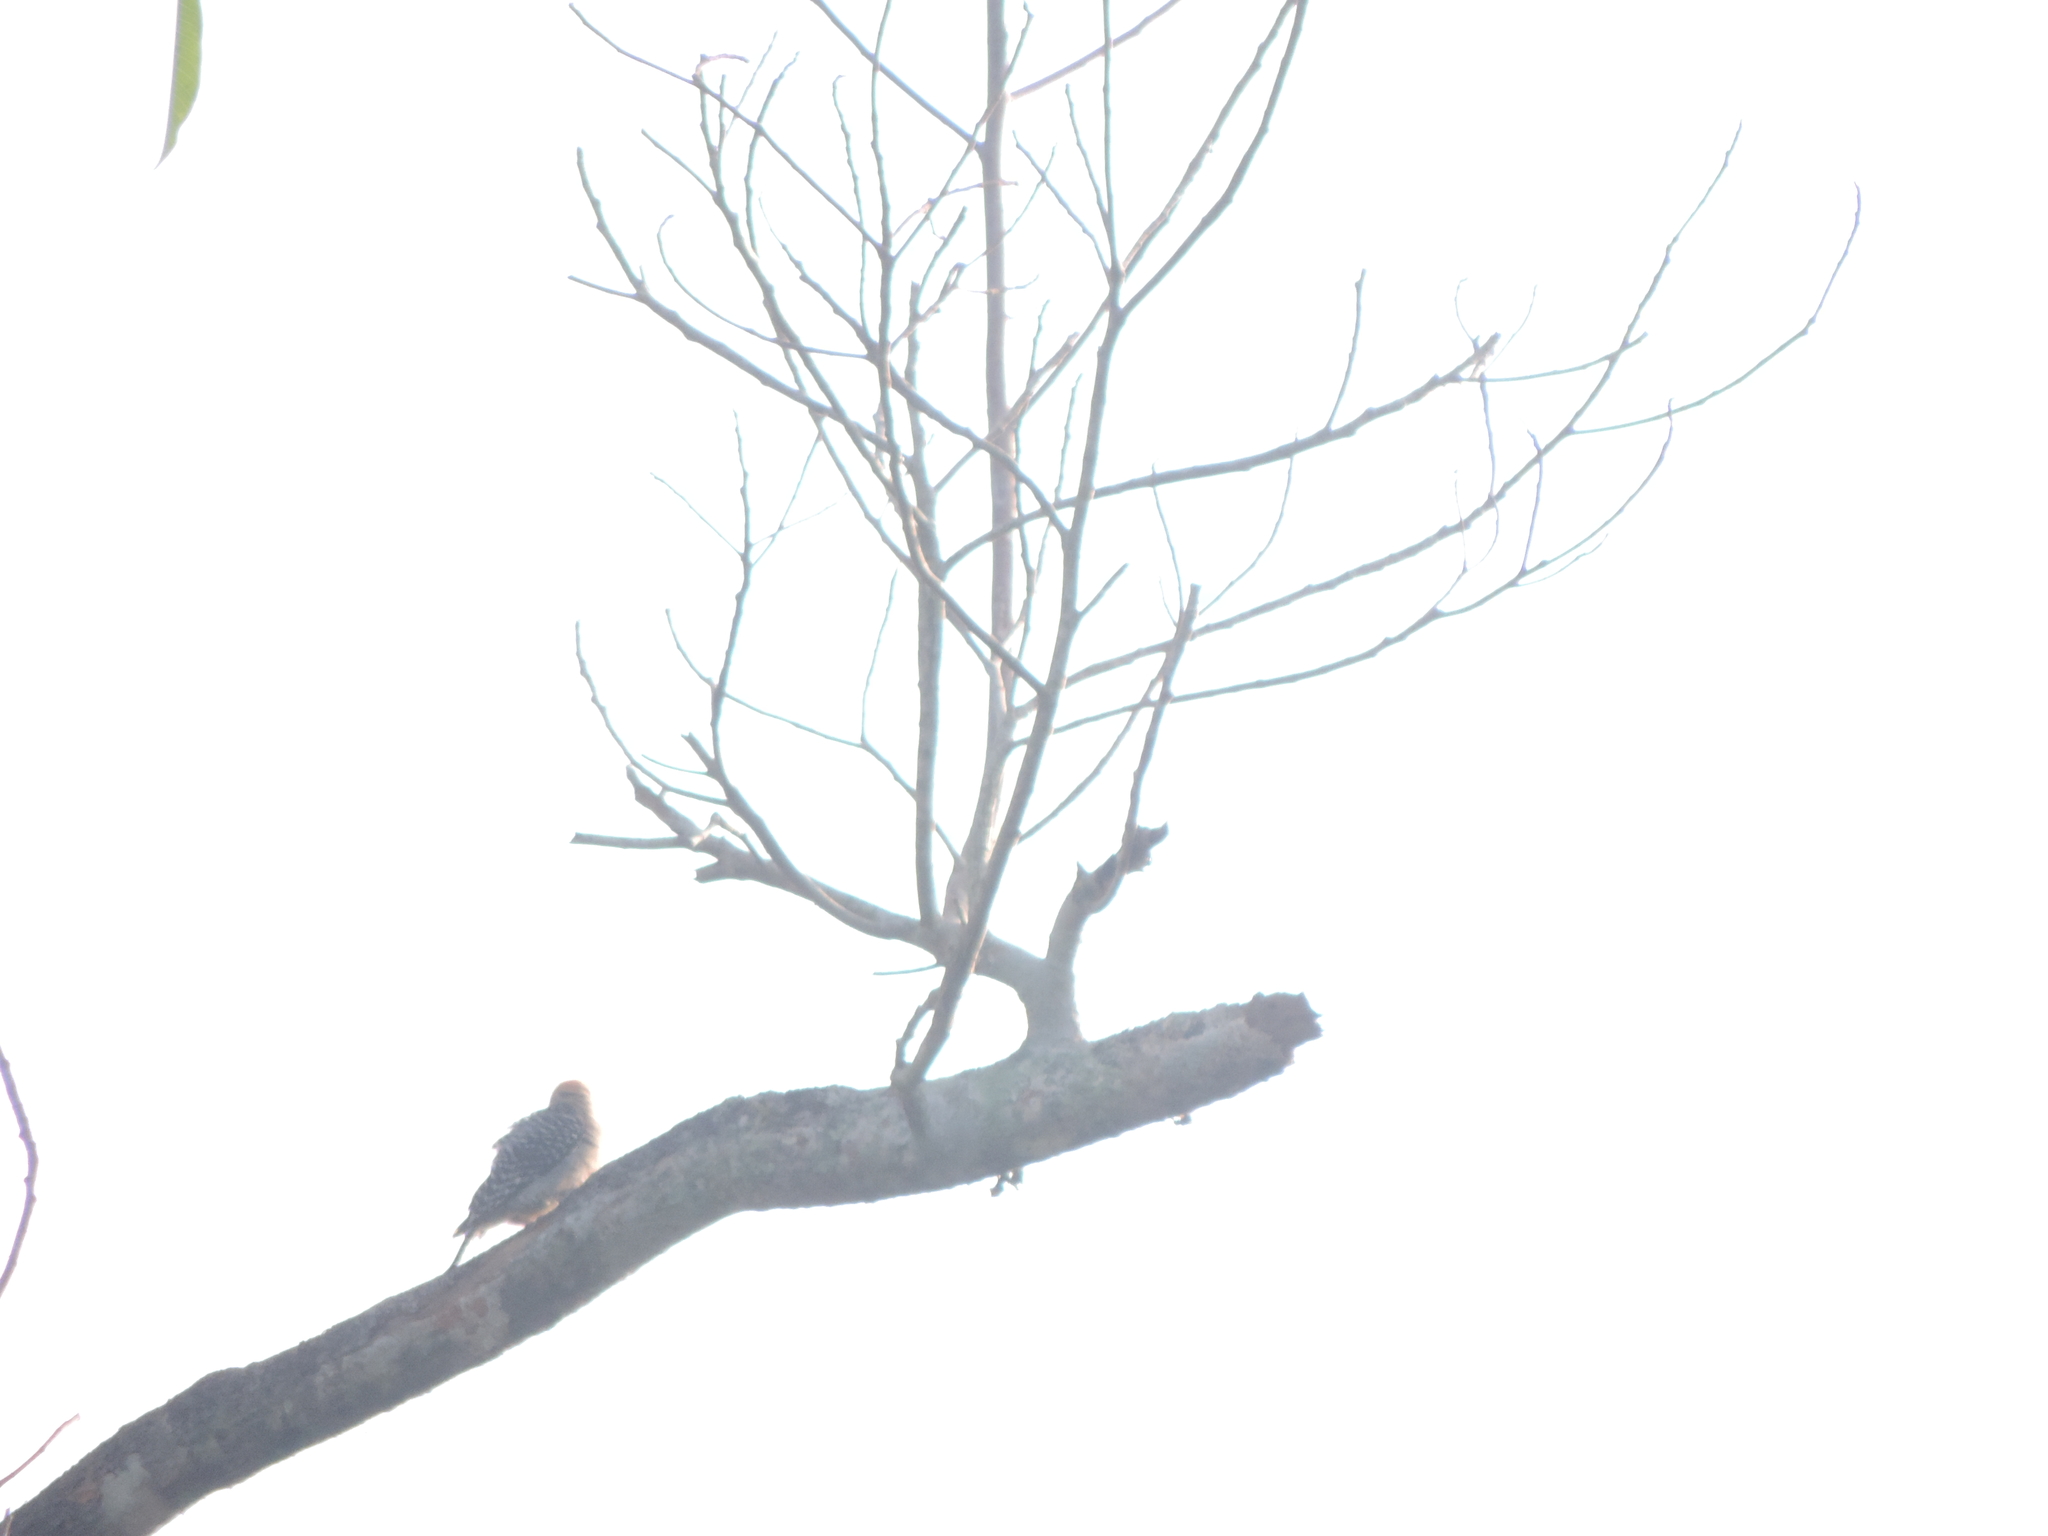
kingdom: Animalia
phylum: Chordata
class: Aves
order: Piciformes
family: Picidae
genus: Melanerpes
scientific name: Melanerpes rubricapillus
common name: Red-crowned woodpecker
